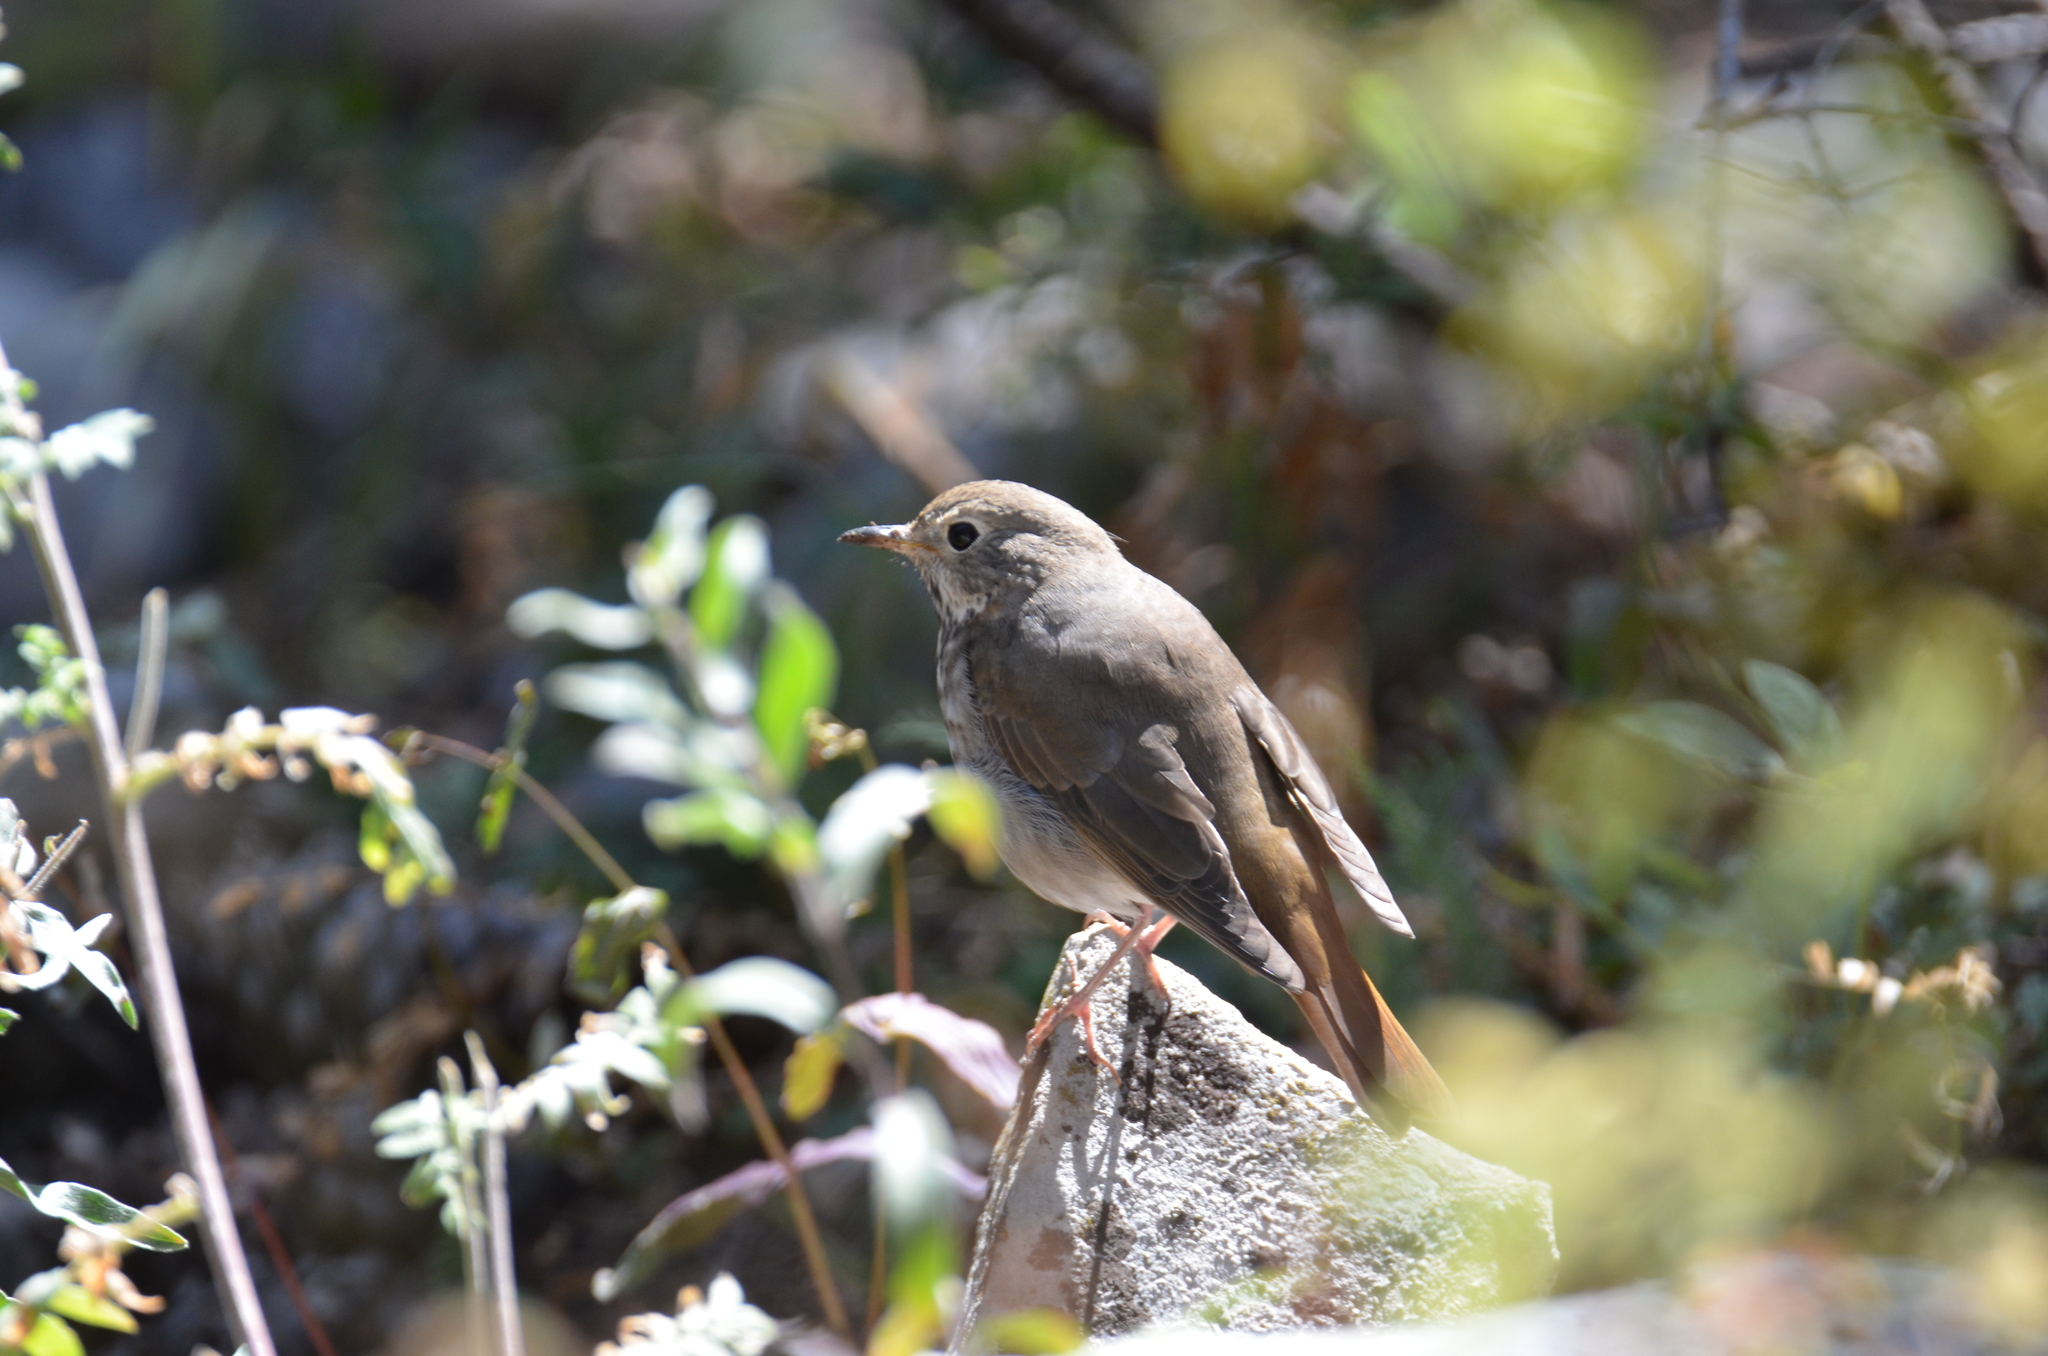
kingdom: Animalia
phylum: Chordata
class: Aves
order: Passeriformes
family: Turdidae
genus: Catharus
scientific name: Catharus guttatus
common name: Hermit thrush
